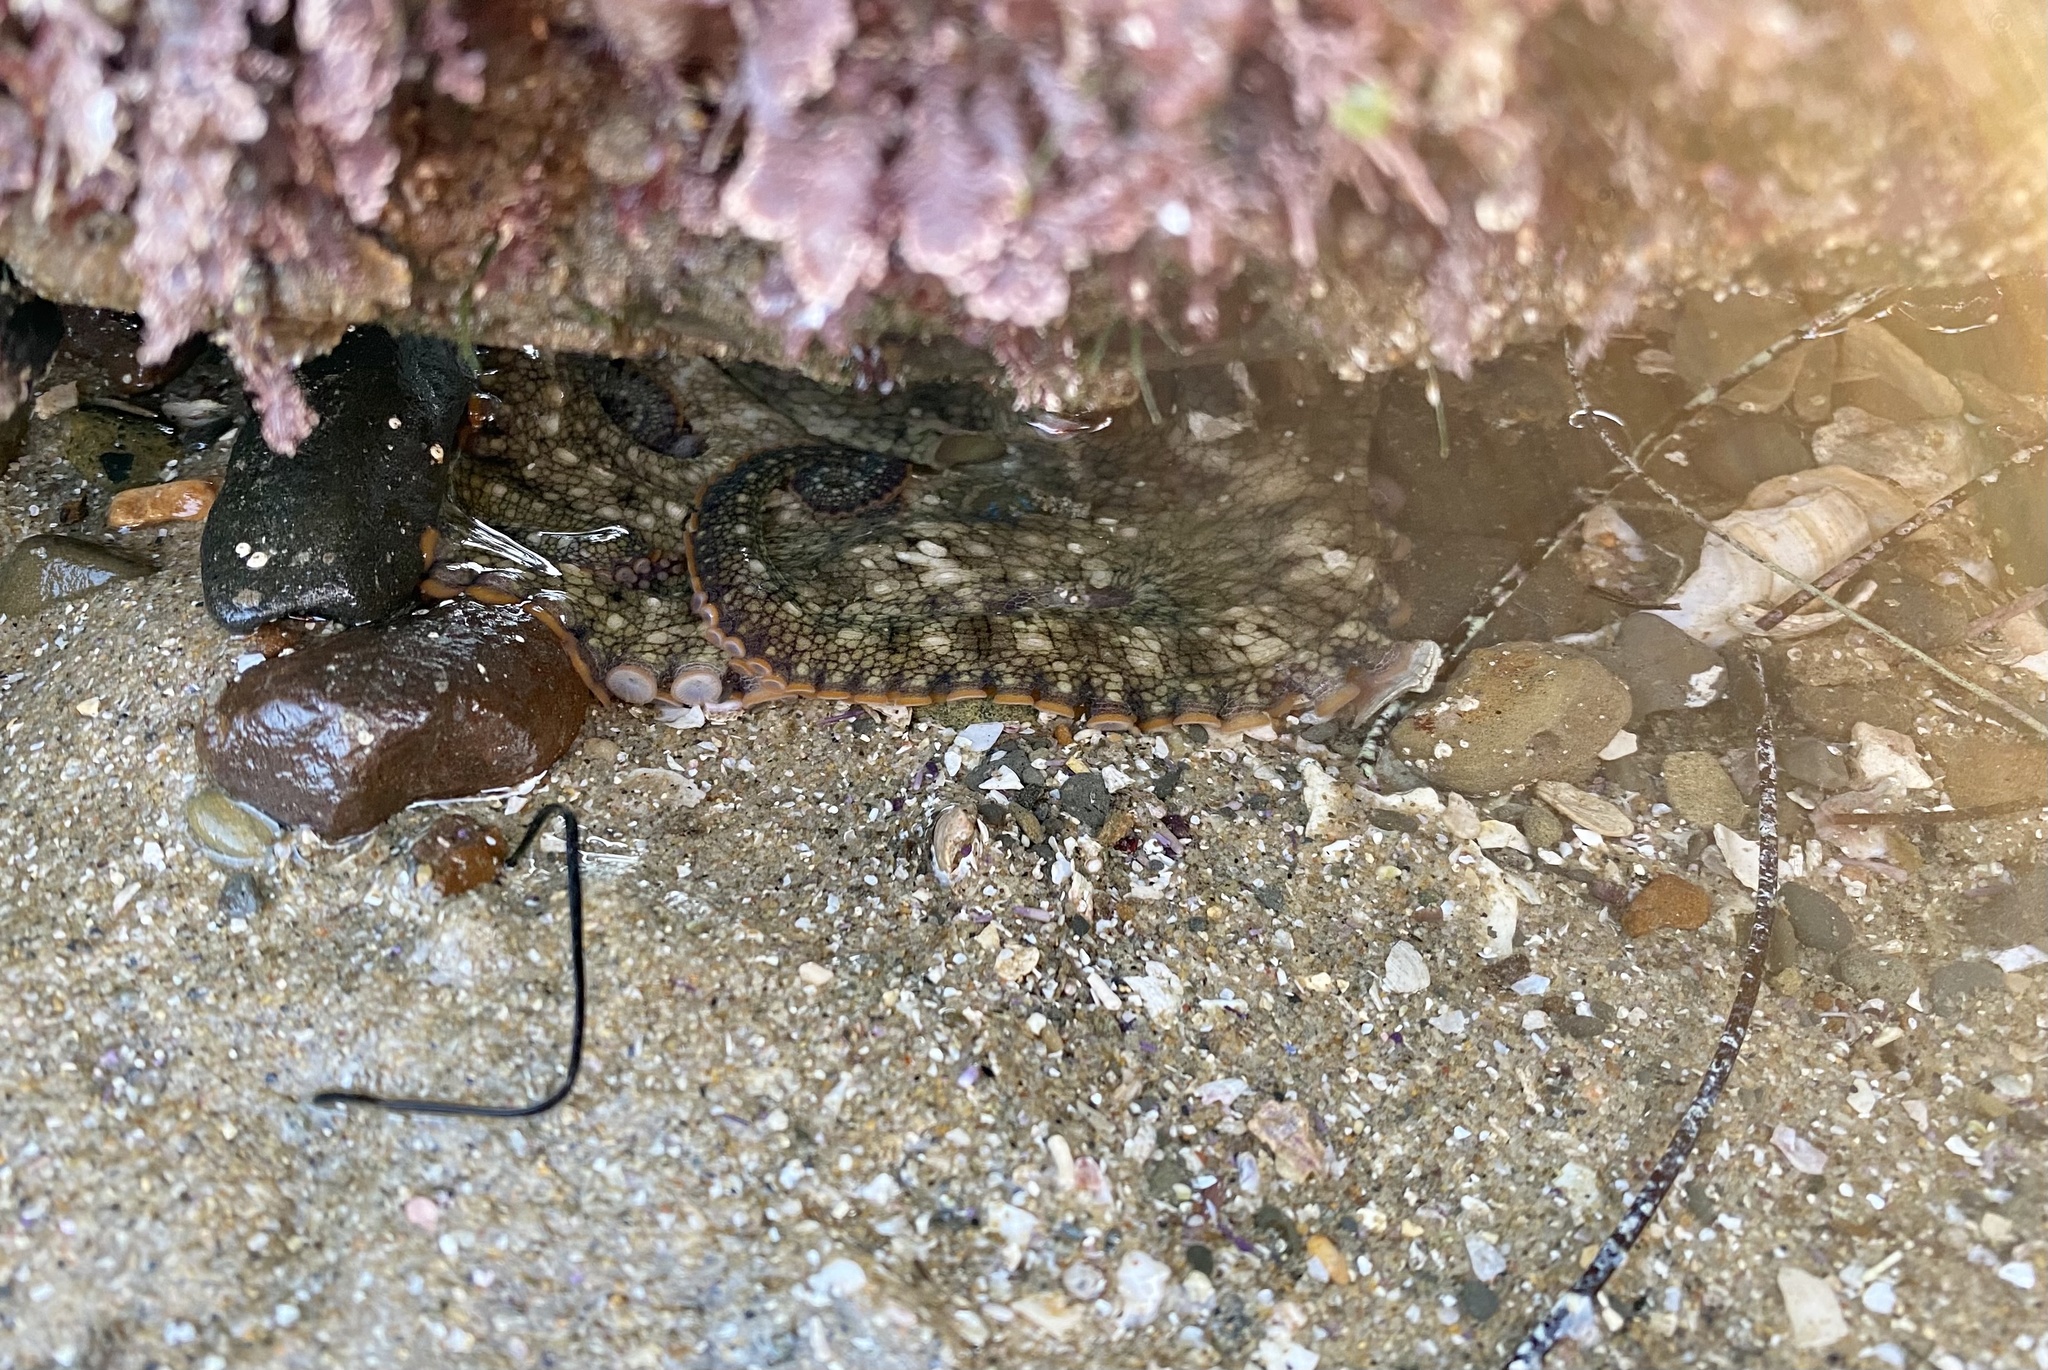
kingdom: Animalia
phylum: Mollusca
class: Cephalopoda
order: Octopoda
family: Octopodidae
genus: Octopus
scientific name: Octopus bimaculoides
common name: California two-spot octopus
